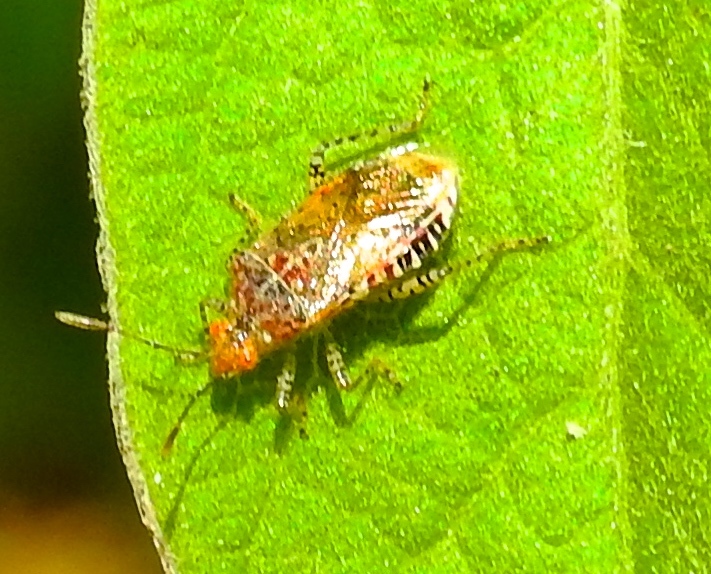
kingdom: Animalia
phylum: Arthropoda
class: Insecta
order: Hemiptera
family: Rhopalidae
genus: Niesthrea
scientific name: Niesthrea
